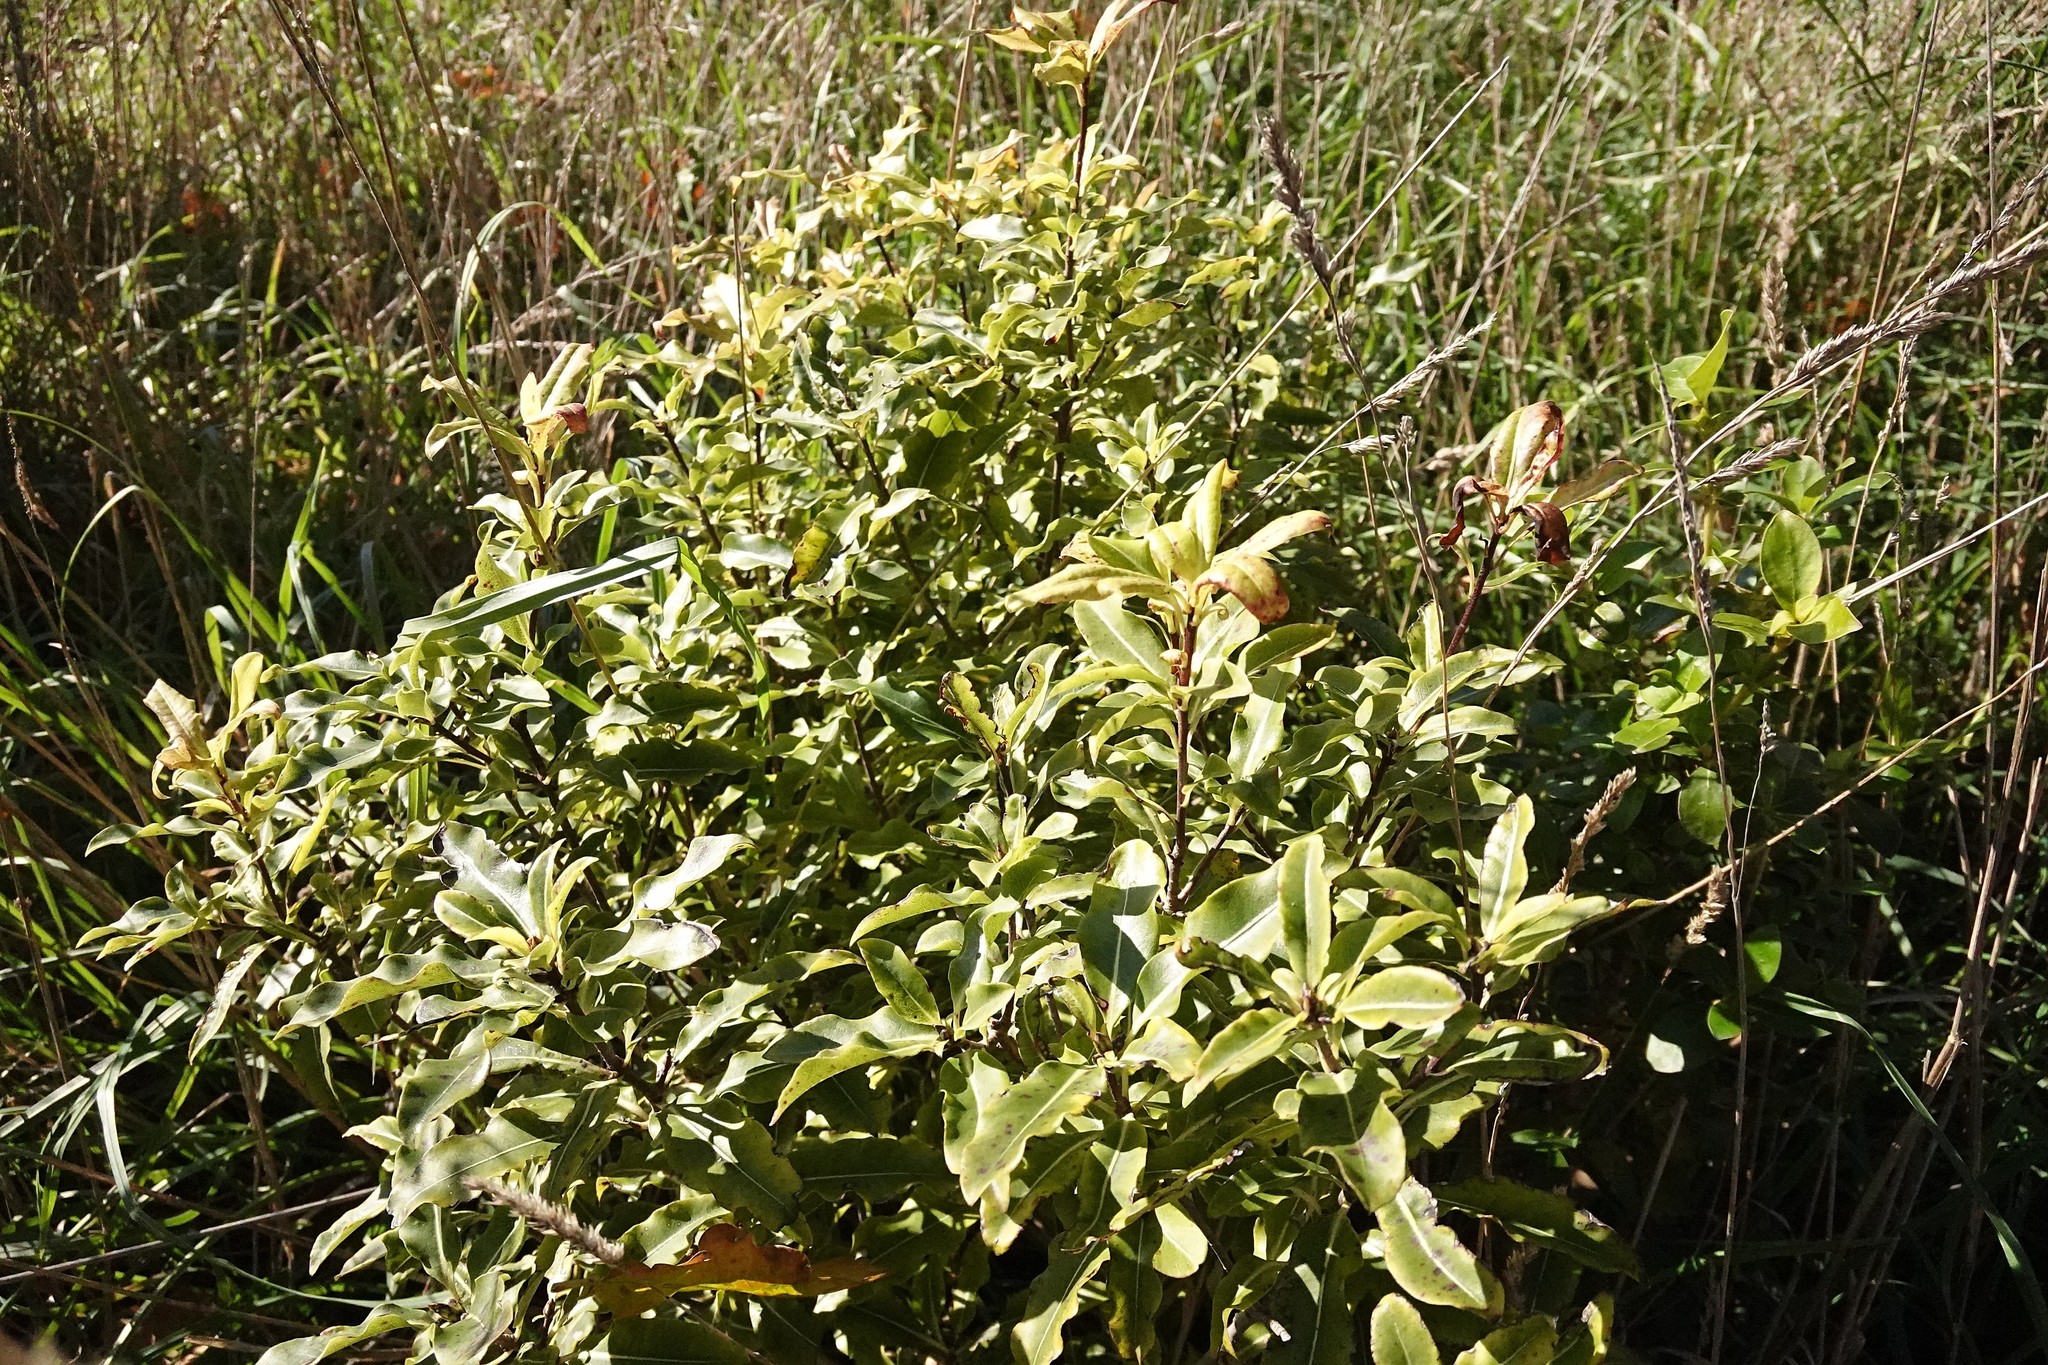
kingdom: Plantae
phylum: Tracheophyta
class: Magnoliopsida
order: Apiales
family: Pittosporaceae
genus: Pittosporum
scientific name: Pittosporum eugenioides
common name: Lemonwood
